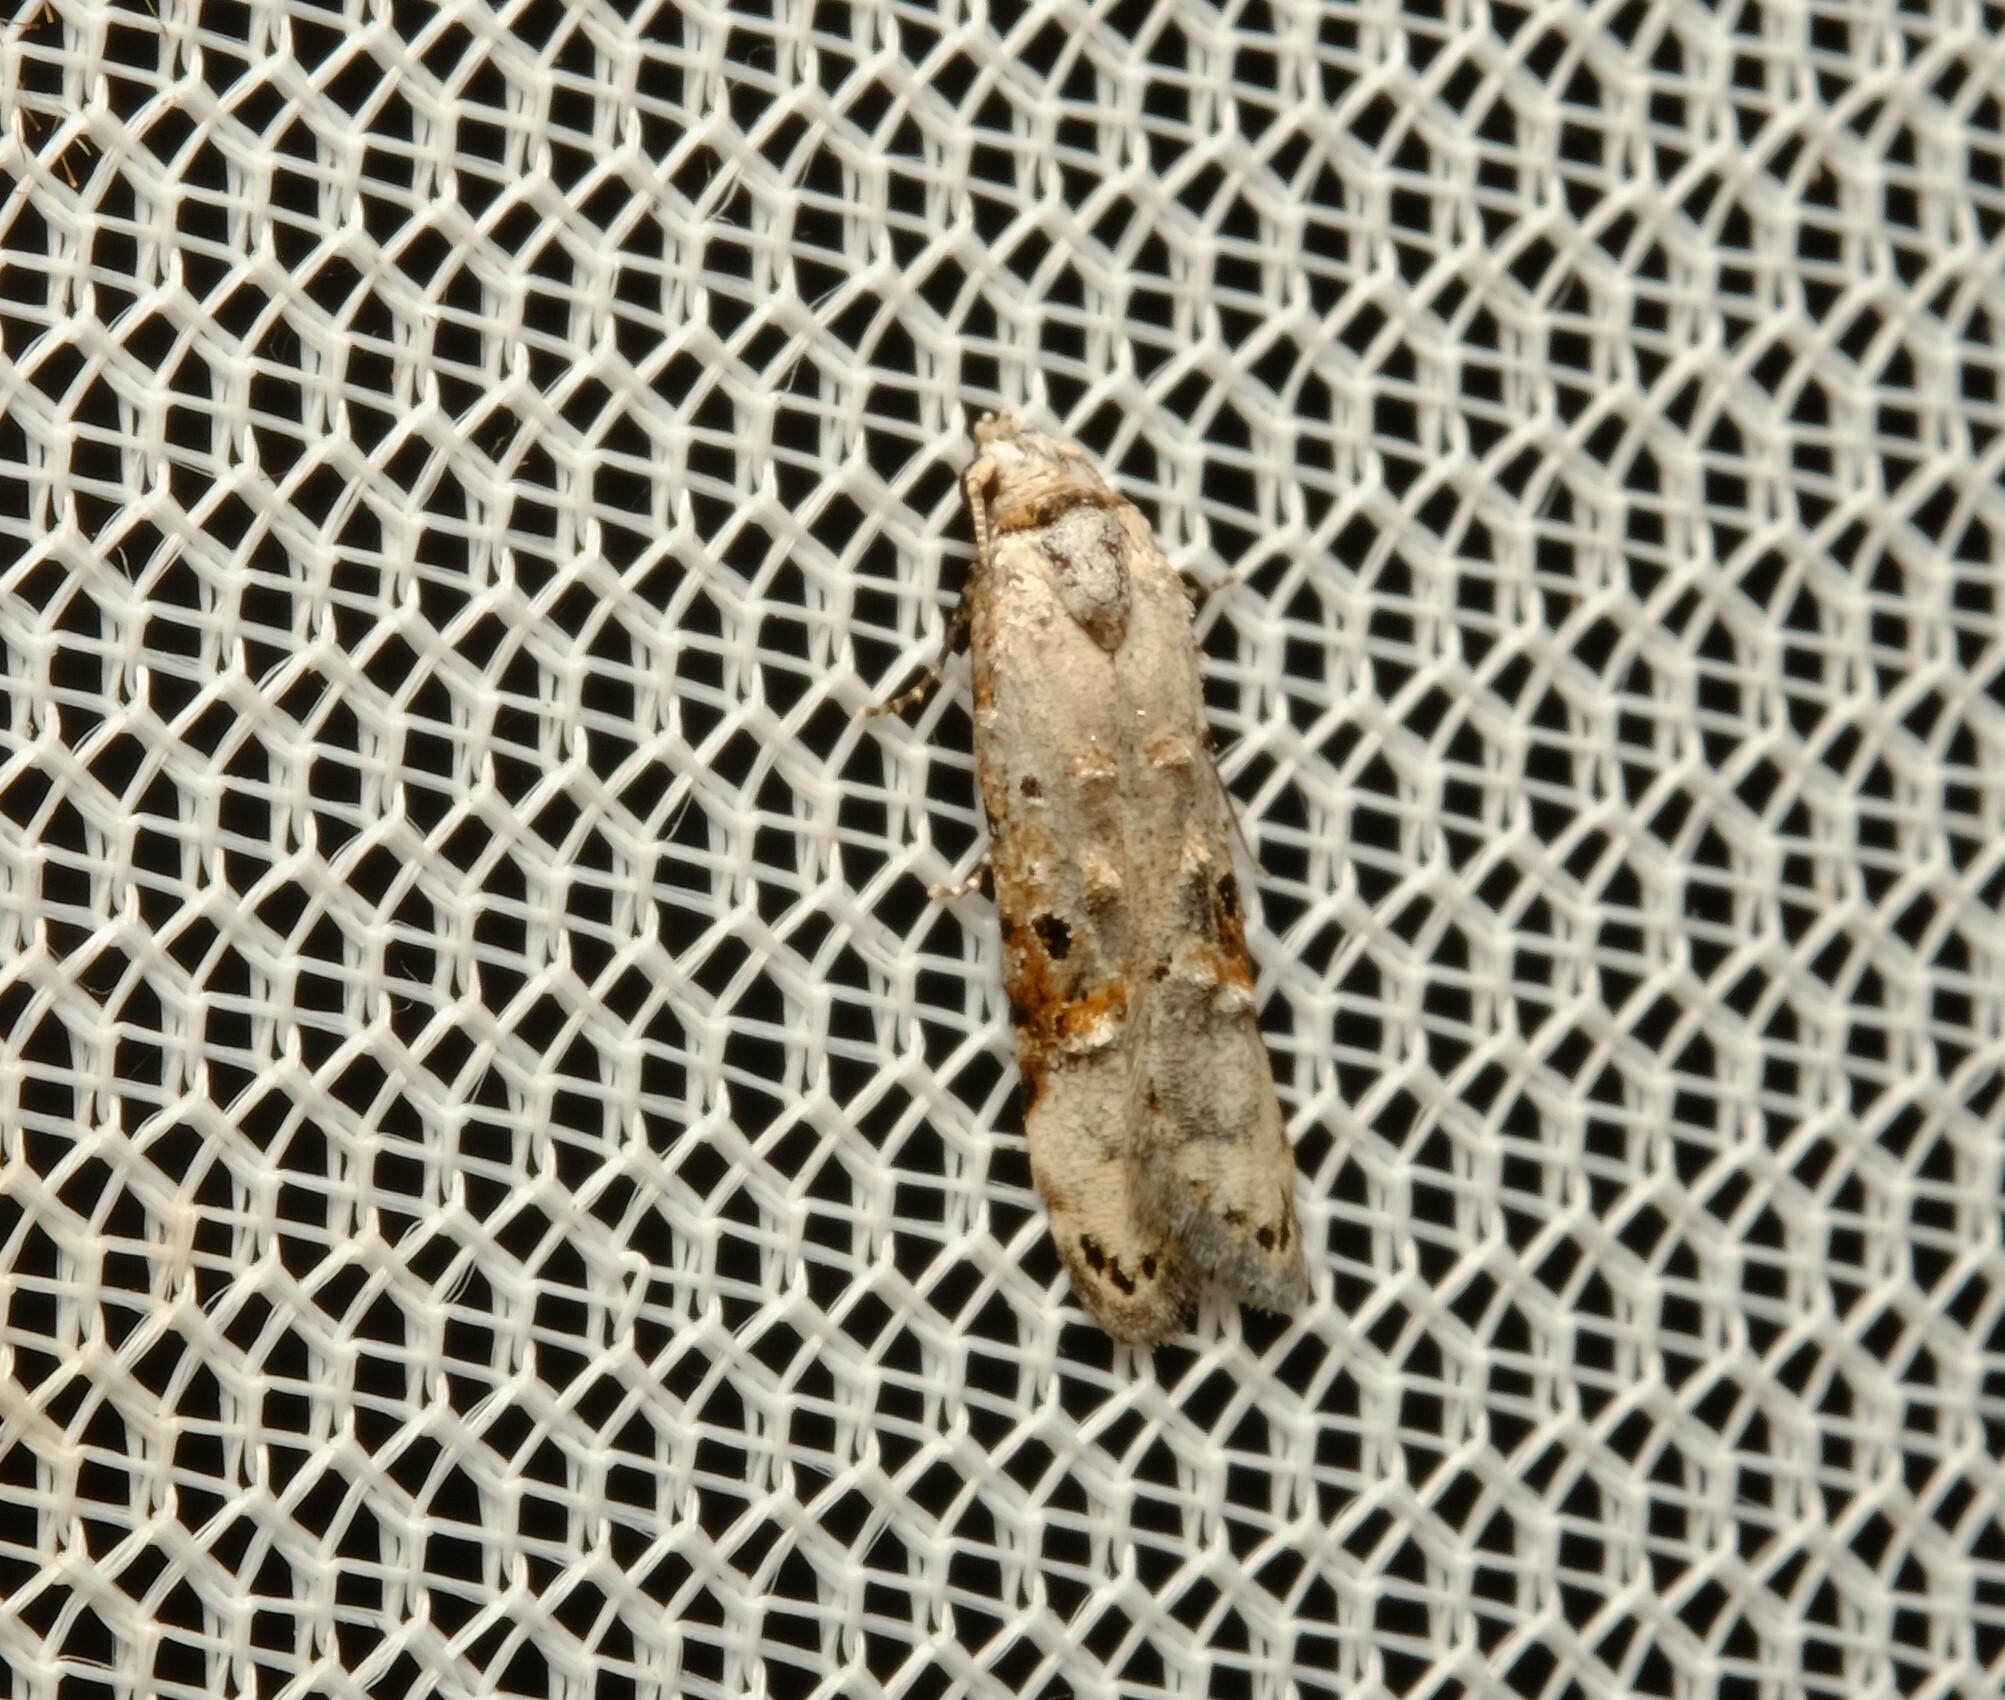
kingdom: Animalia
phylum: Arthropoda
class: Insecta
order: Lepidoptera
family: Carposinidae
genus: Sosineura
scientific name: Sosineura mimica
